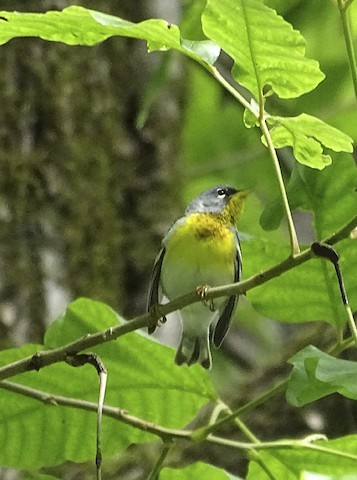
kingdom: Animalia
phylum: Chordata
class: Aves
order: Passeriformes
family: Parulidae
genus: Setophaga
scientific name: Setophaga americana
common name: Northern parula
